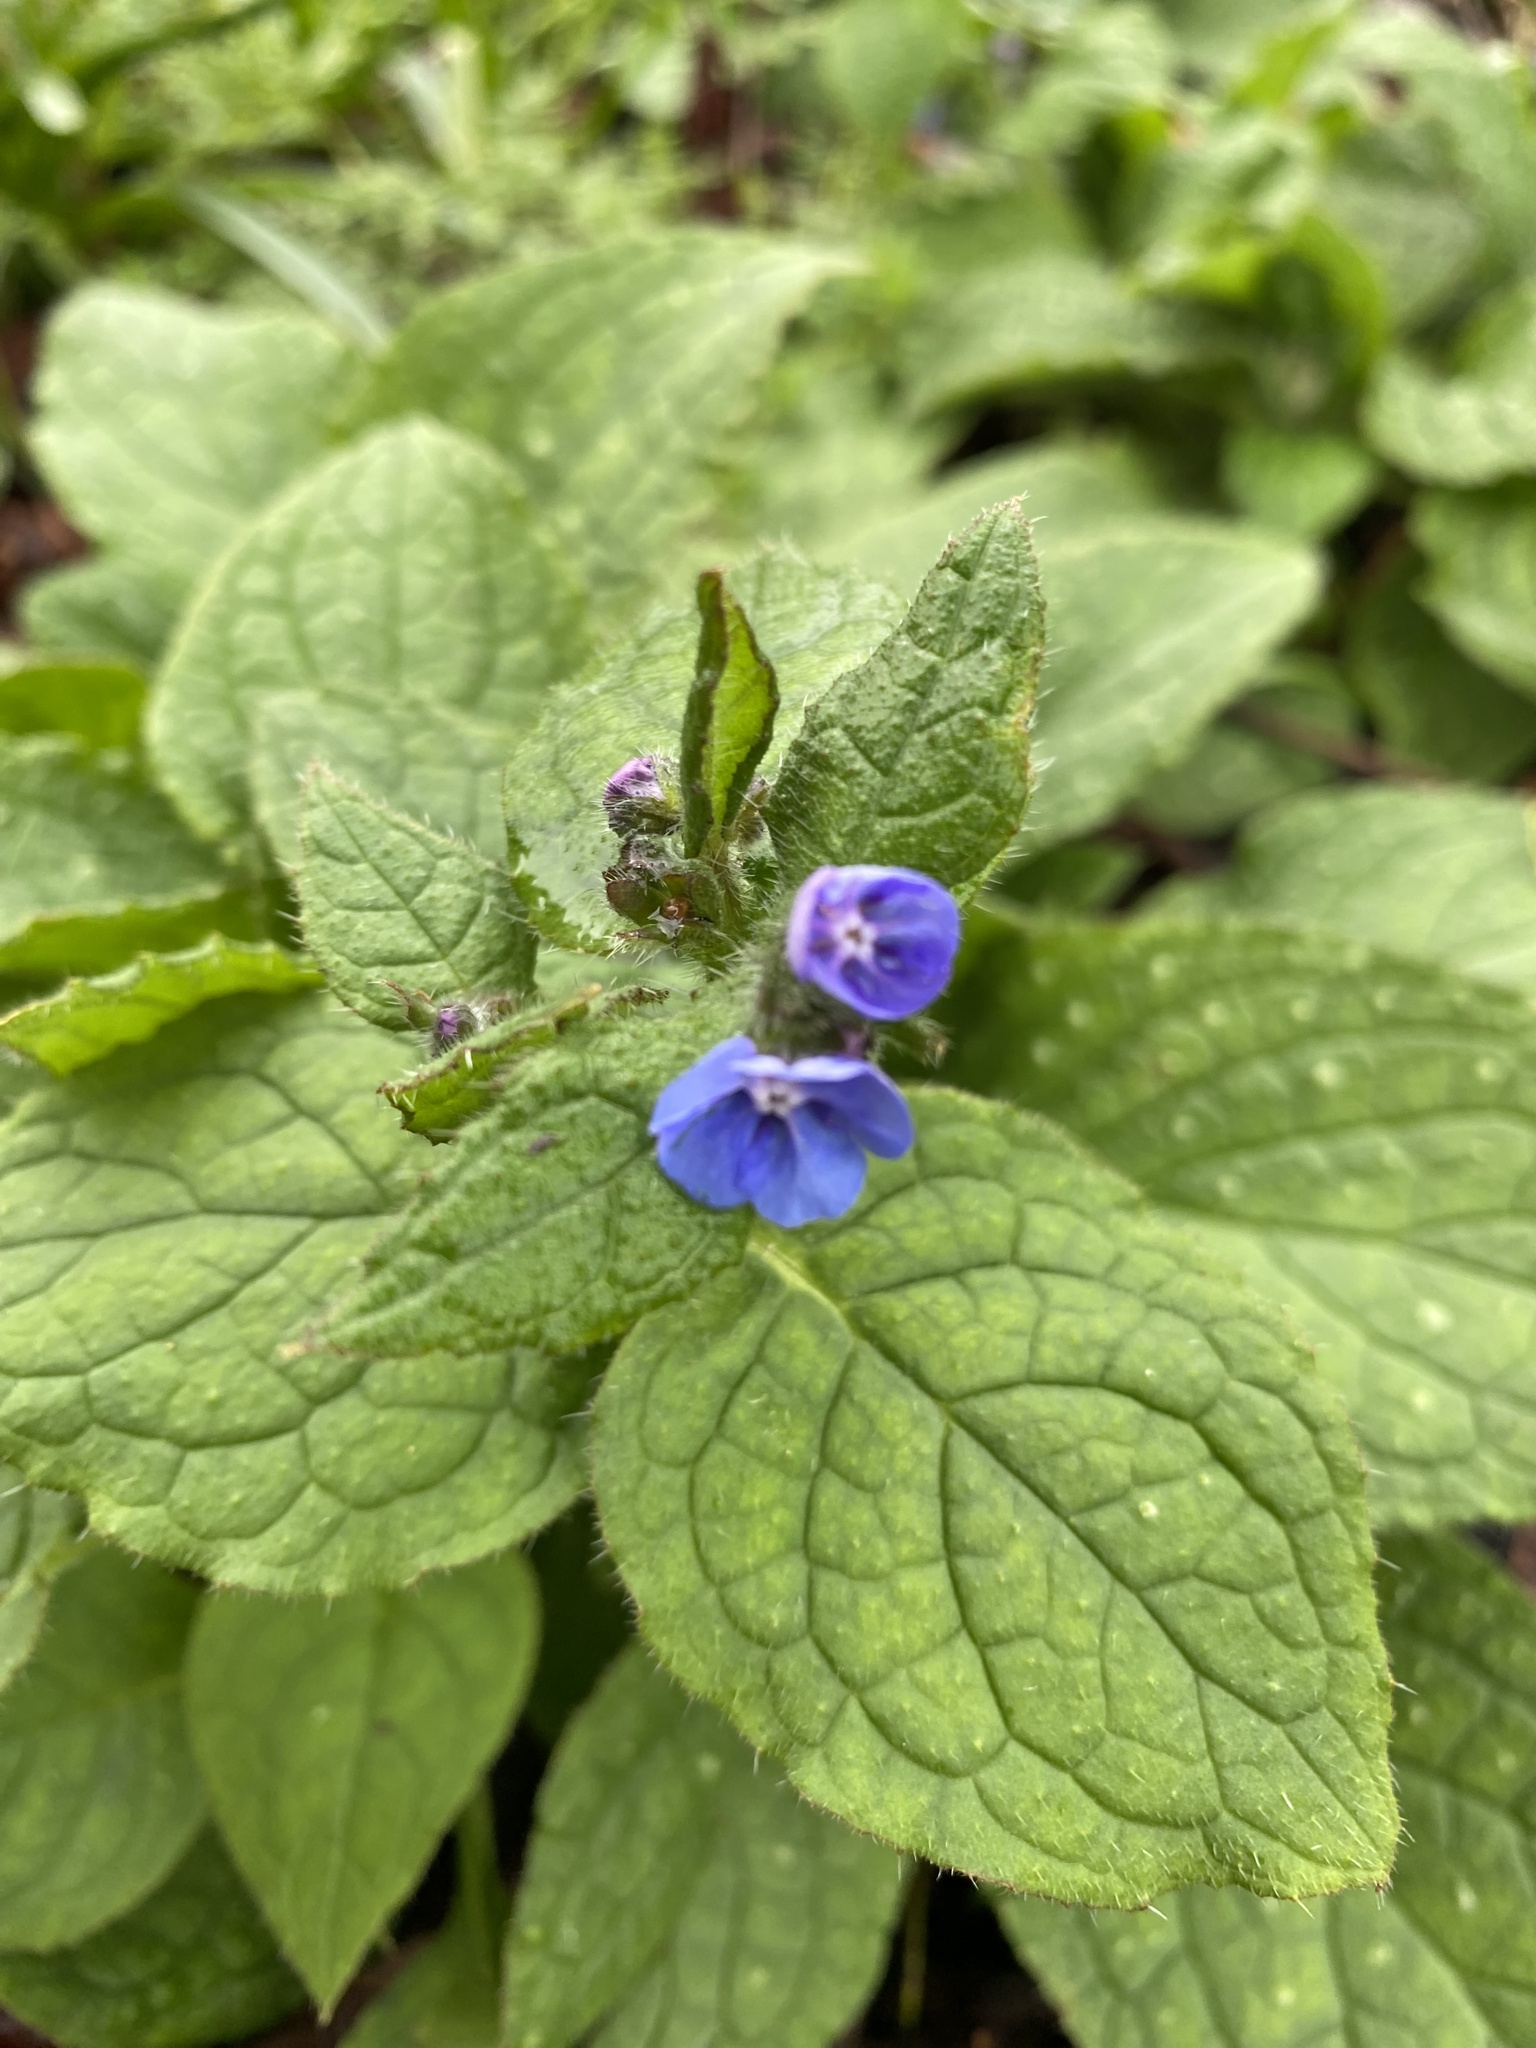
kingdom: Plantae
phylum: Tracheophyta
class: Magnoliopsida
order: Boraginales
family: Boraginaceae
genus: Pentaglottis
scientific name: Pentaglottis sempervirens
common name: Green alkanet
